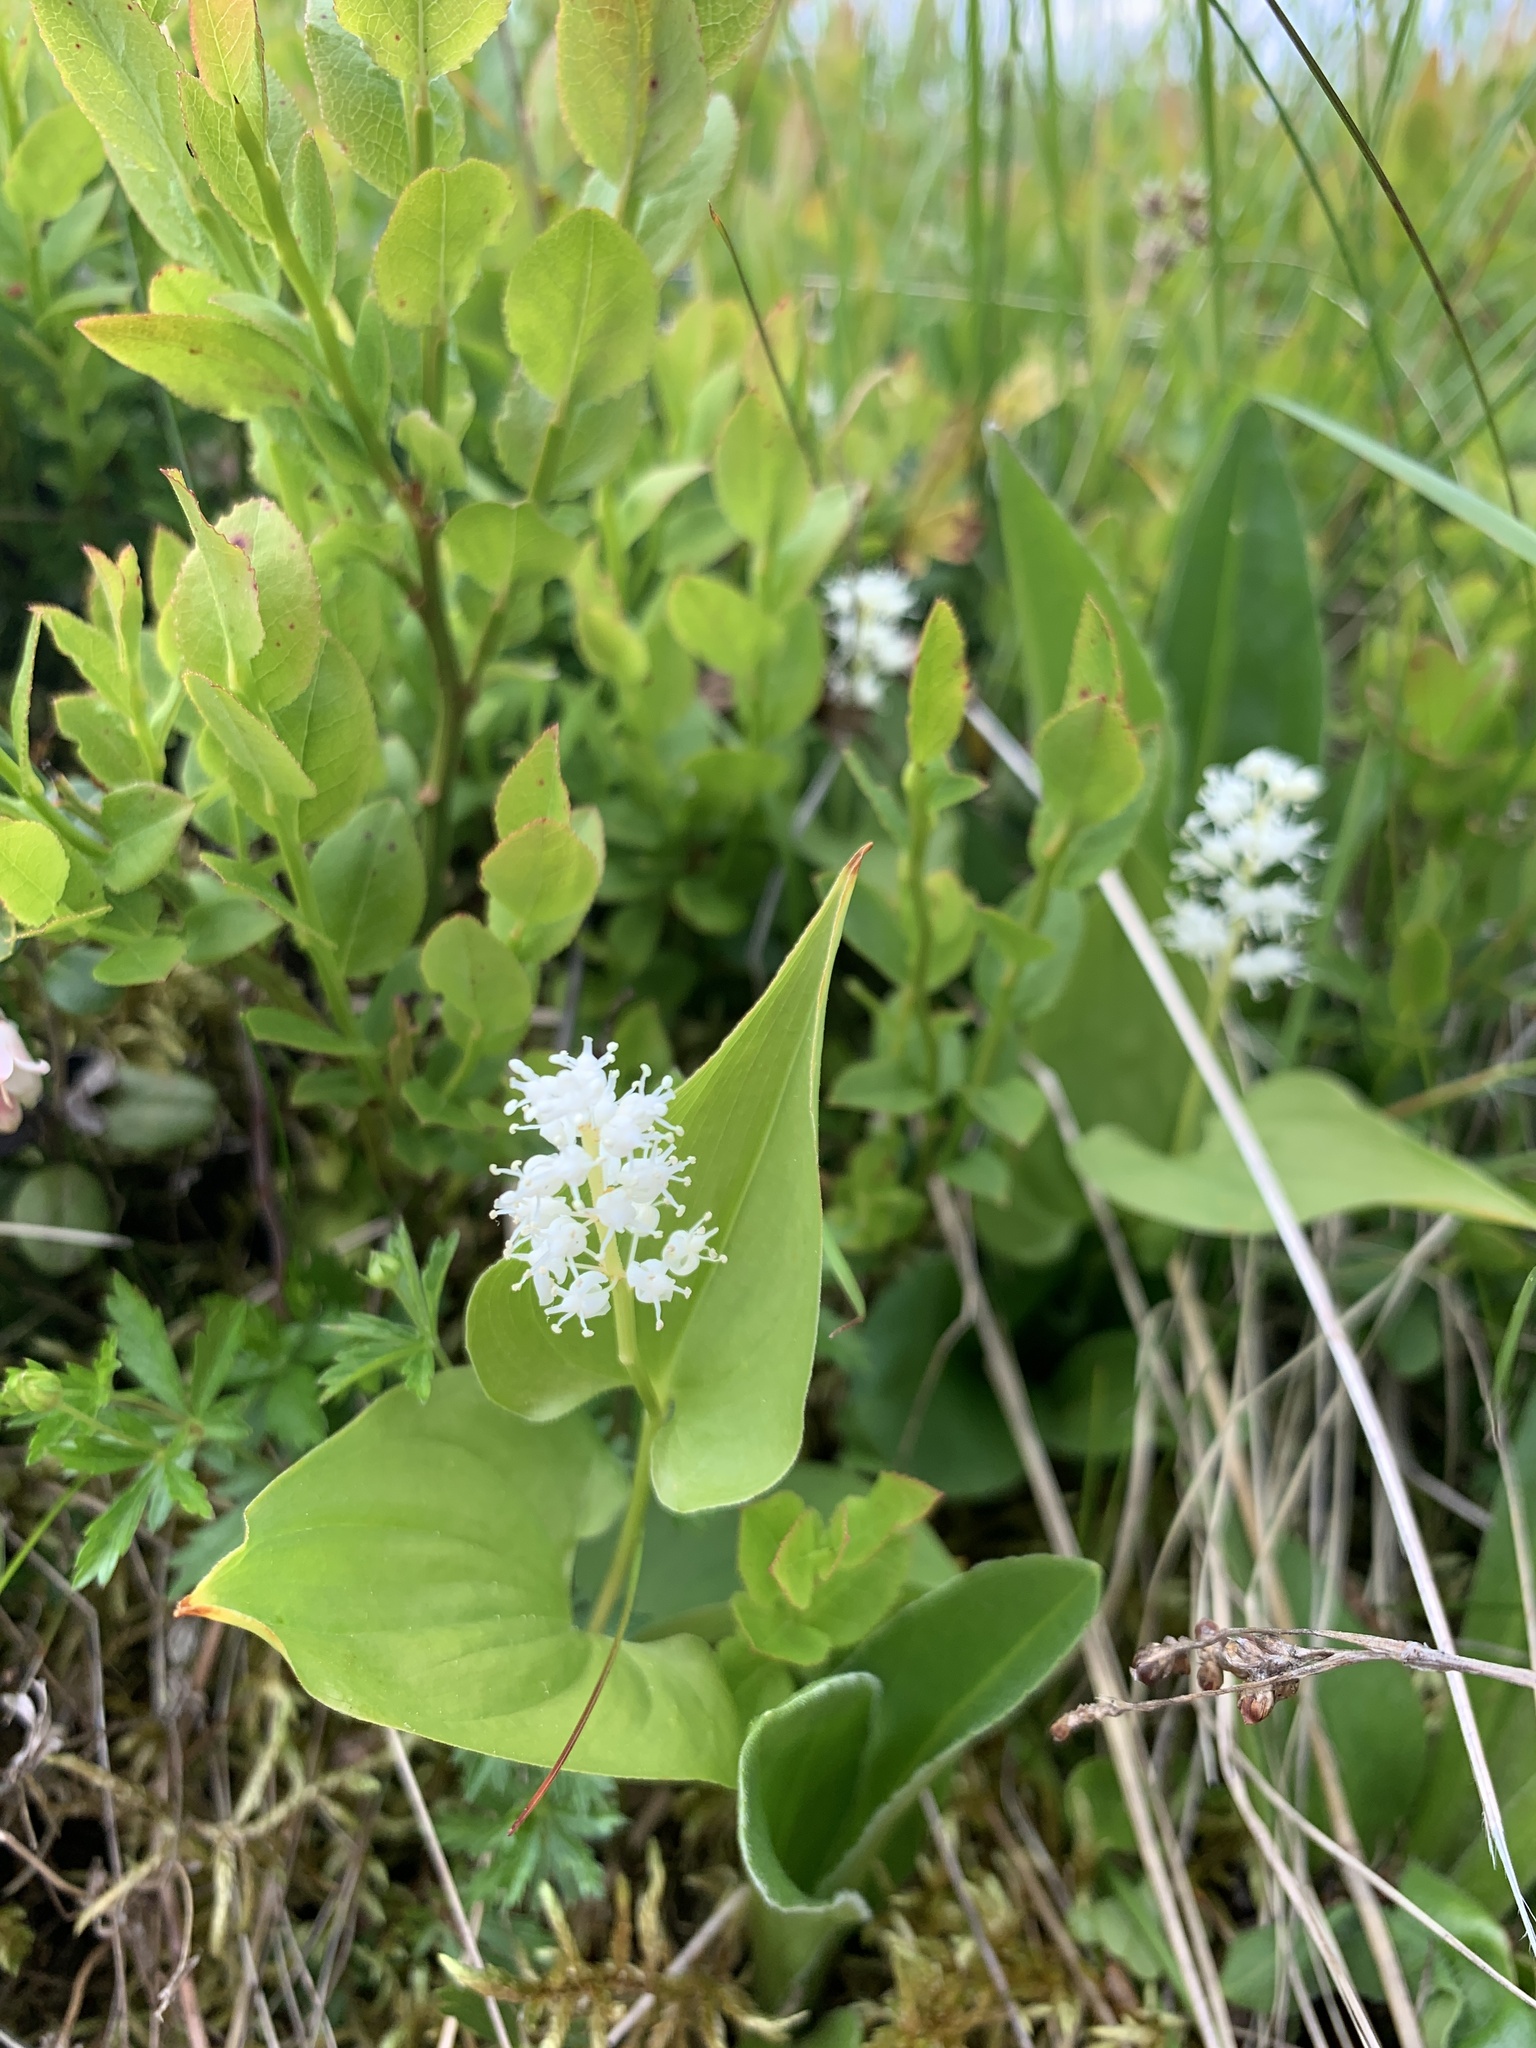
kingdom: Plantae
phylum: Tracheophyta
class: Liliopsida
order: Asparagales
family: Asparagaceae
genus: Maianthemum
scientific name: Maianthemum bifolium
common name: May lily
